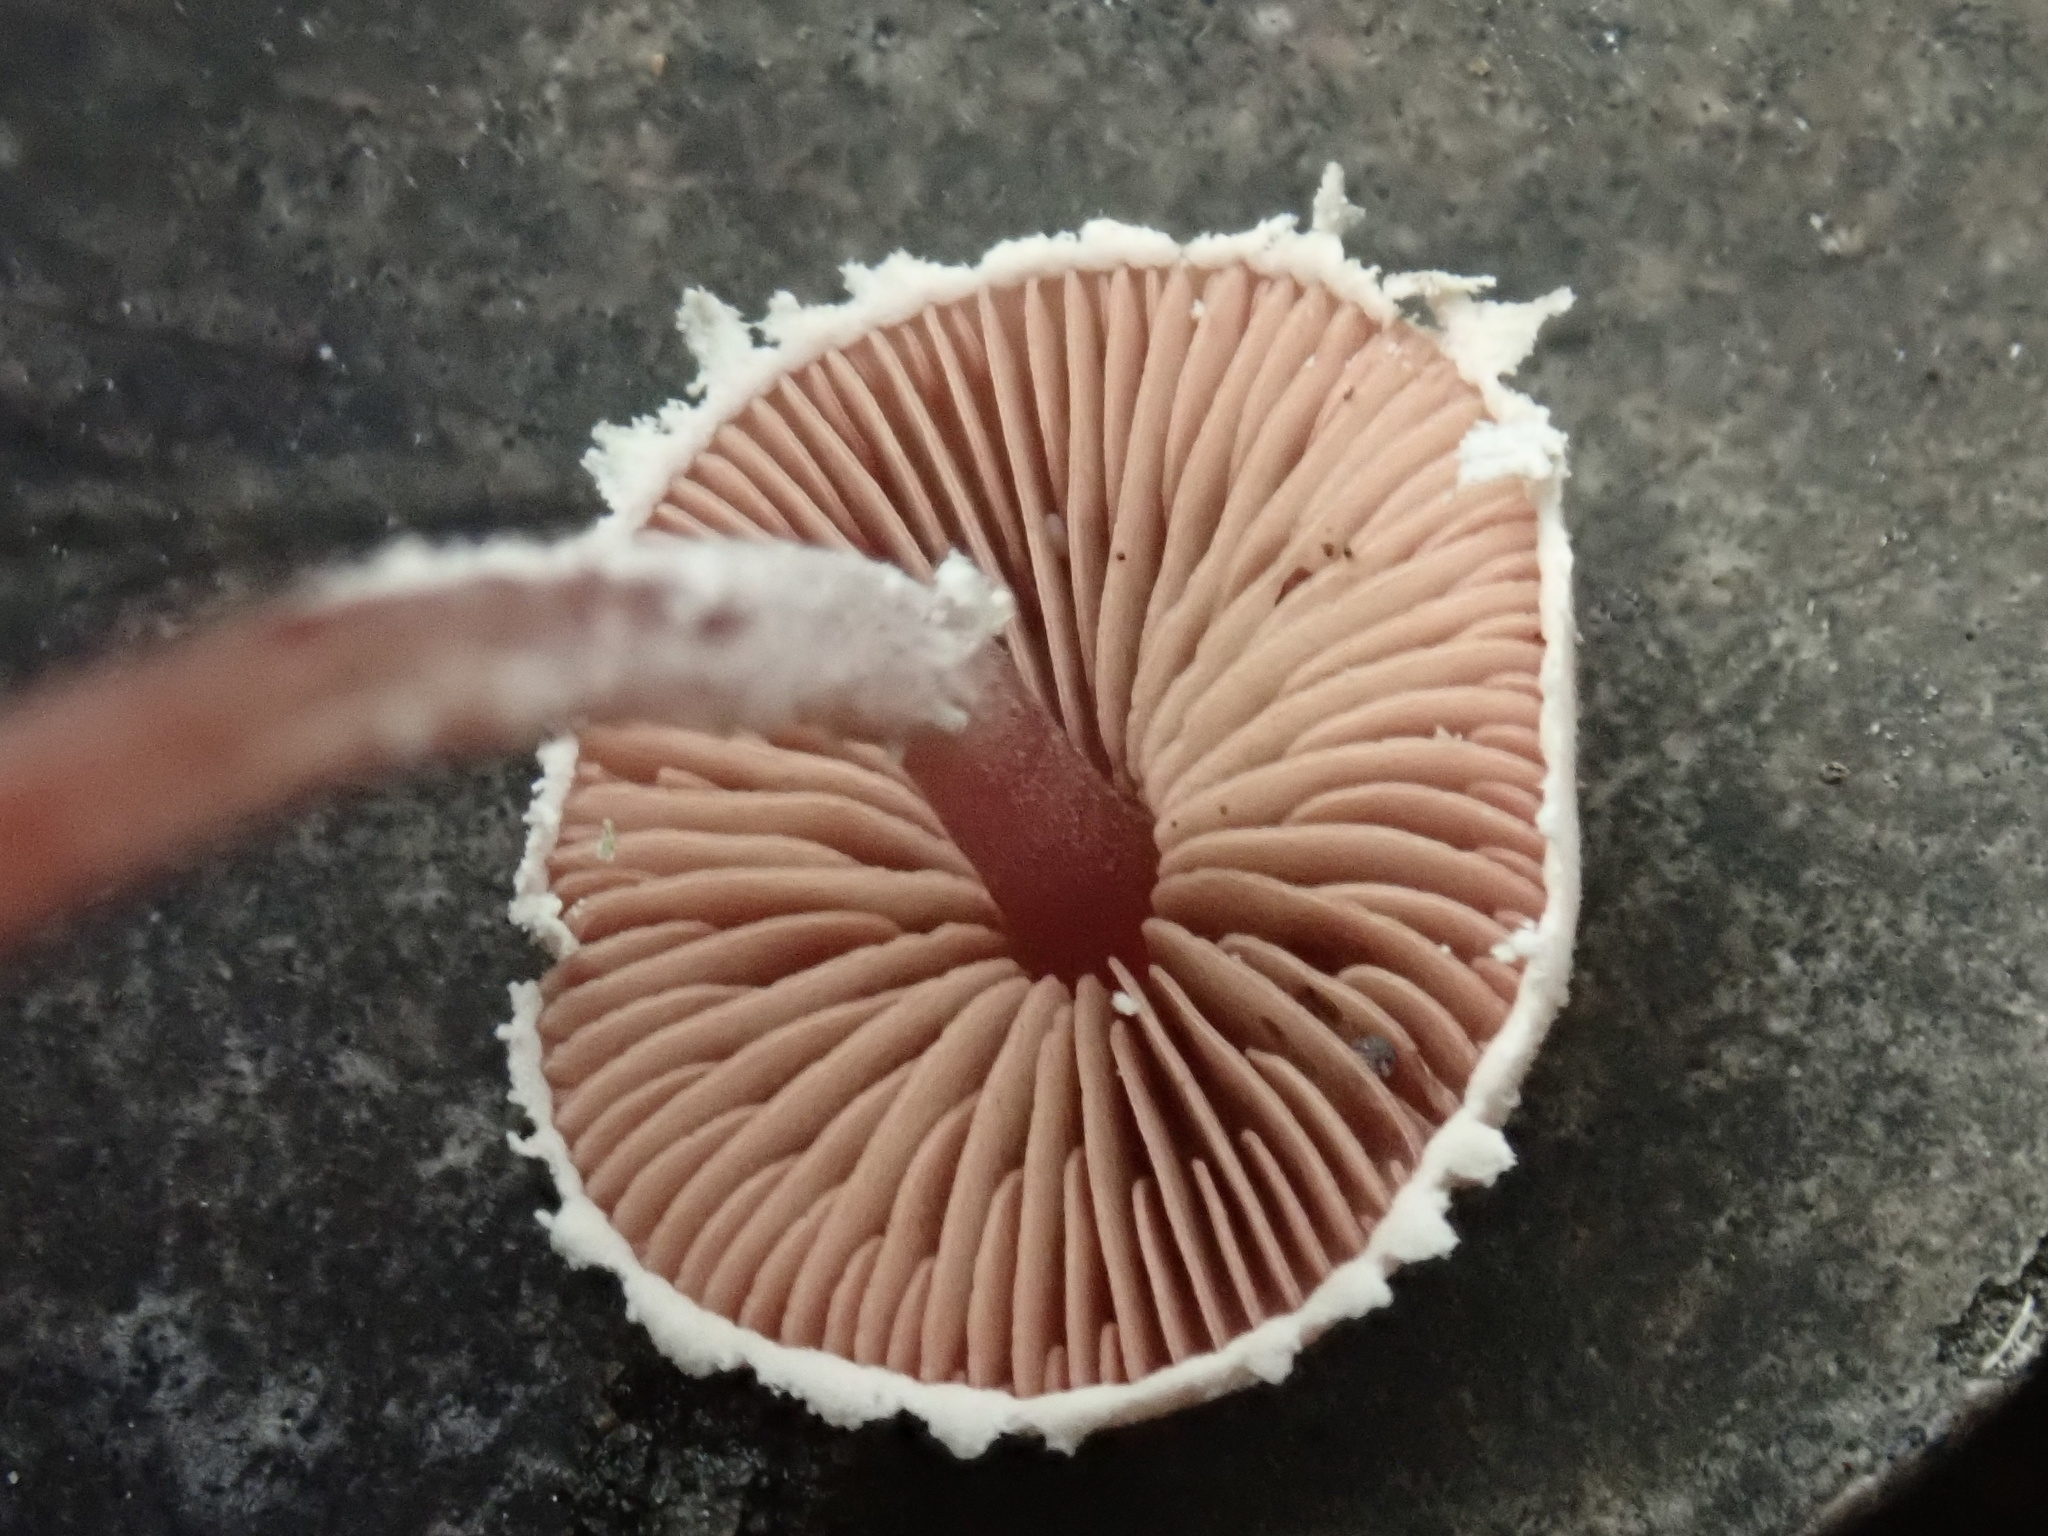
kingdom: Fungi
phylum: Basidiomycota
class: Agaricomycetes
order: Agaricales
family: Agaricaceae
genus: Melanophyllum
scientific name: Melanophyllum haematospermum
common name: Redspored dapperling
